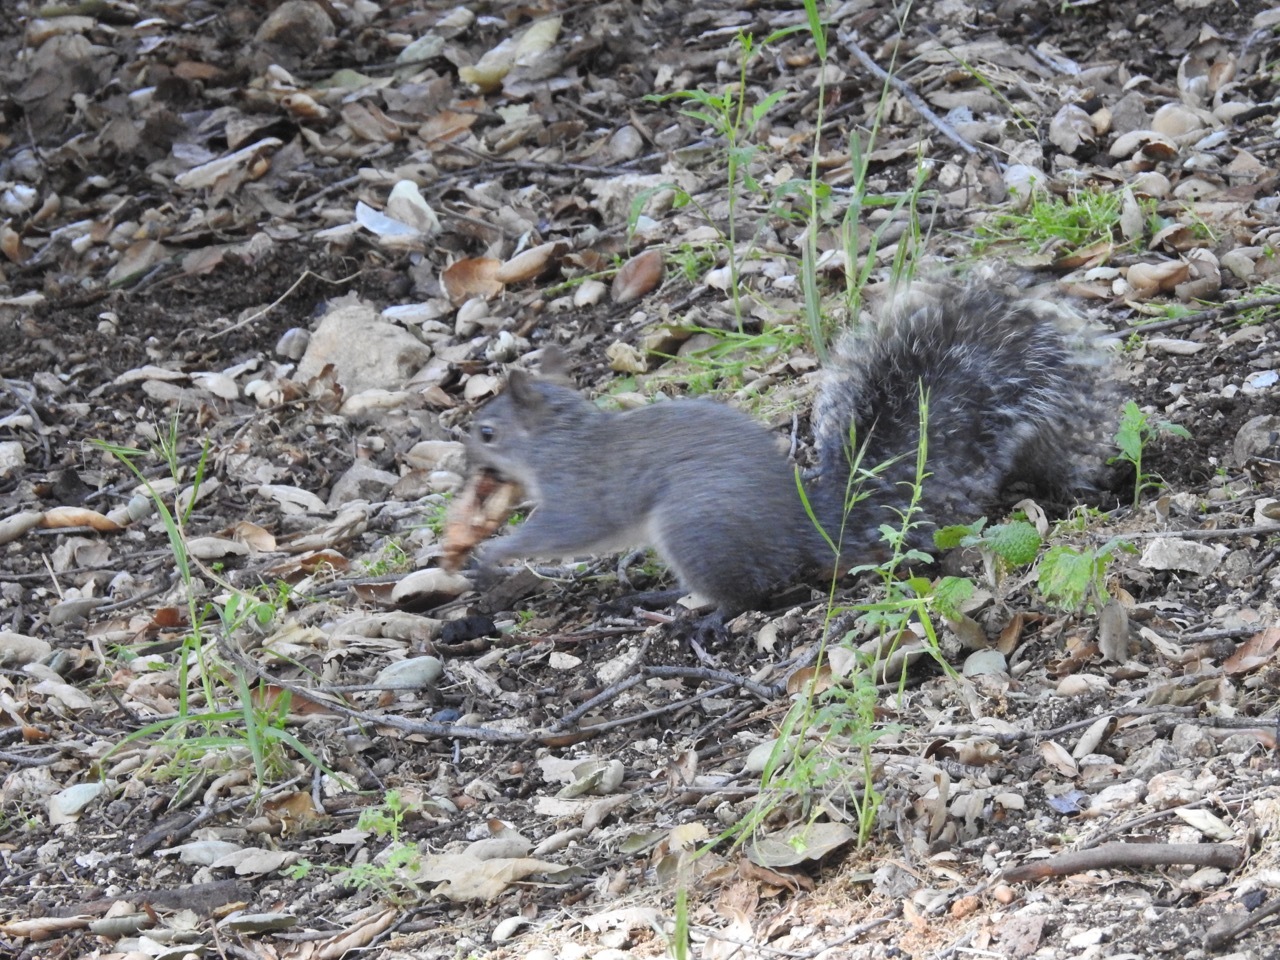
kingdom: Animalia
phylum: Chordata
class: Mammalia
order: Rodentia
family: Sciuridae
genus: Sciurus
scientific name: Sciurus griseus
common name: Western gray squirrel
